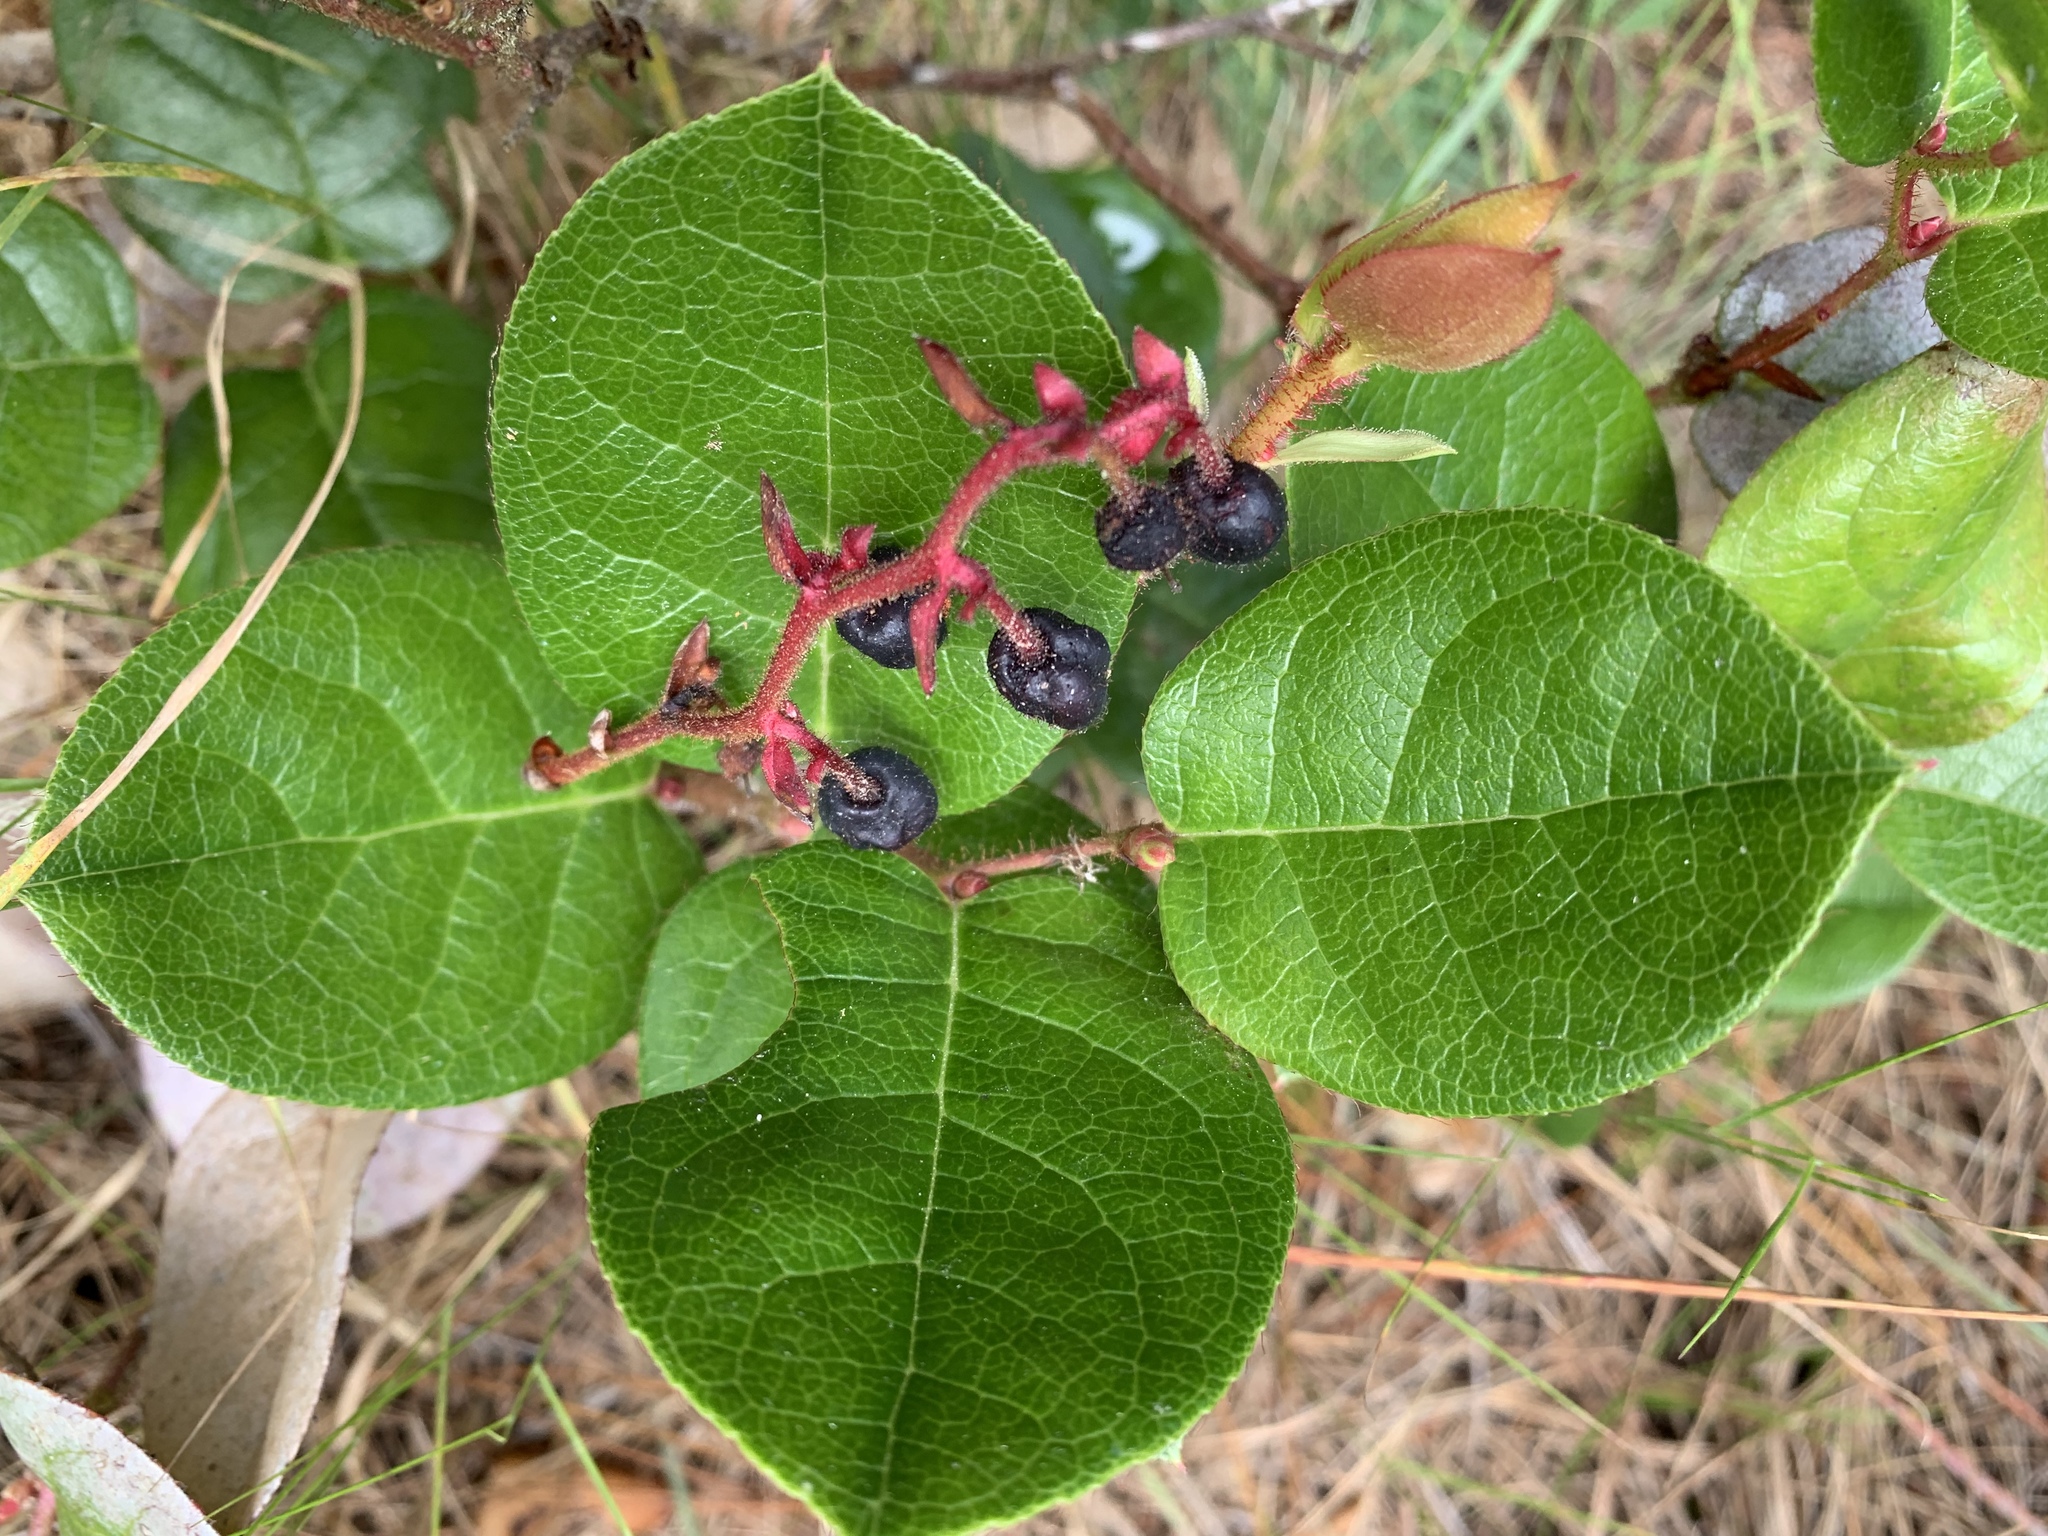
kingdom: Plantae
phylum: Tracheophyta
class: Magnoliopsida
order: Ericales
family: Ericaceae
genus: Gaultheria
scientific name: Gaultheria shallon
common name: Shallon
